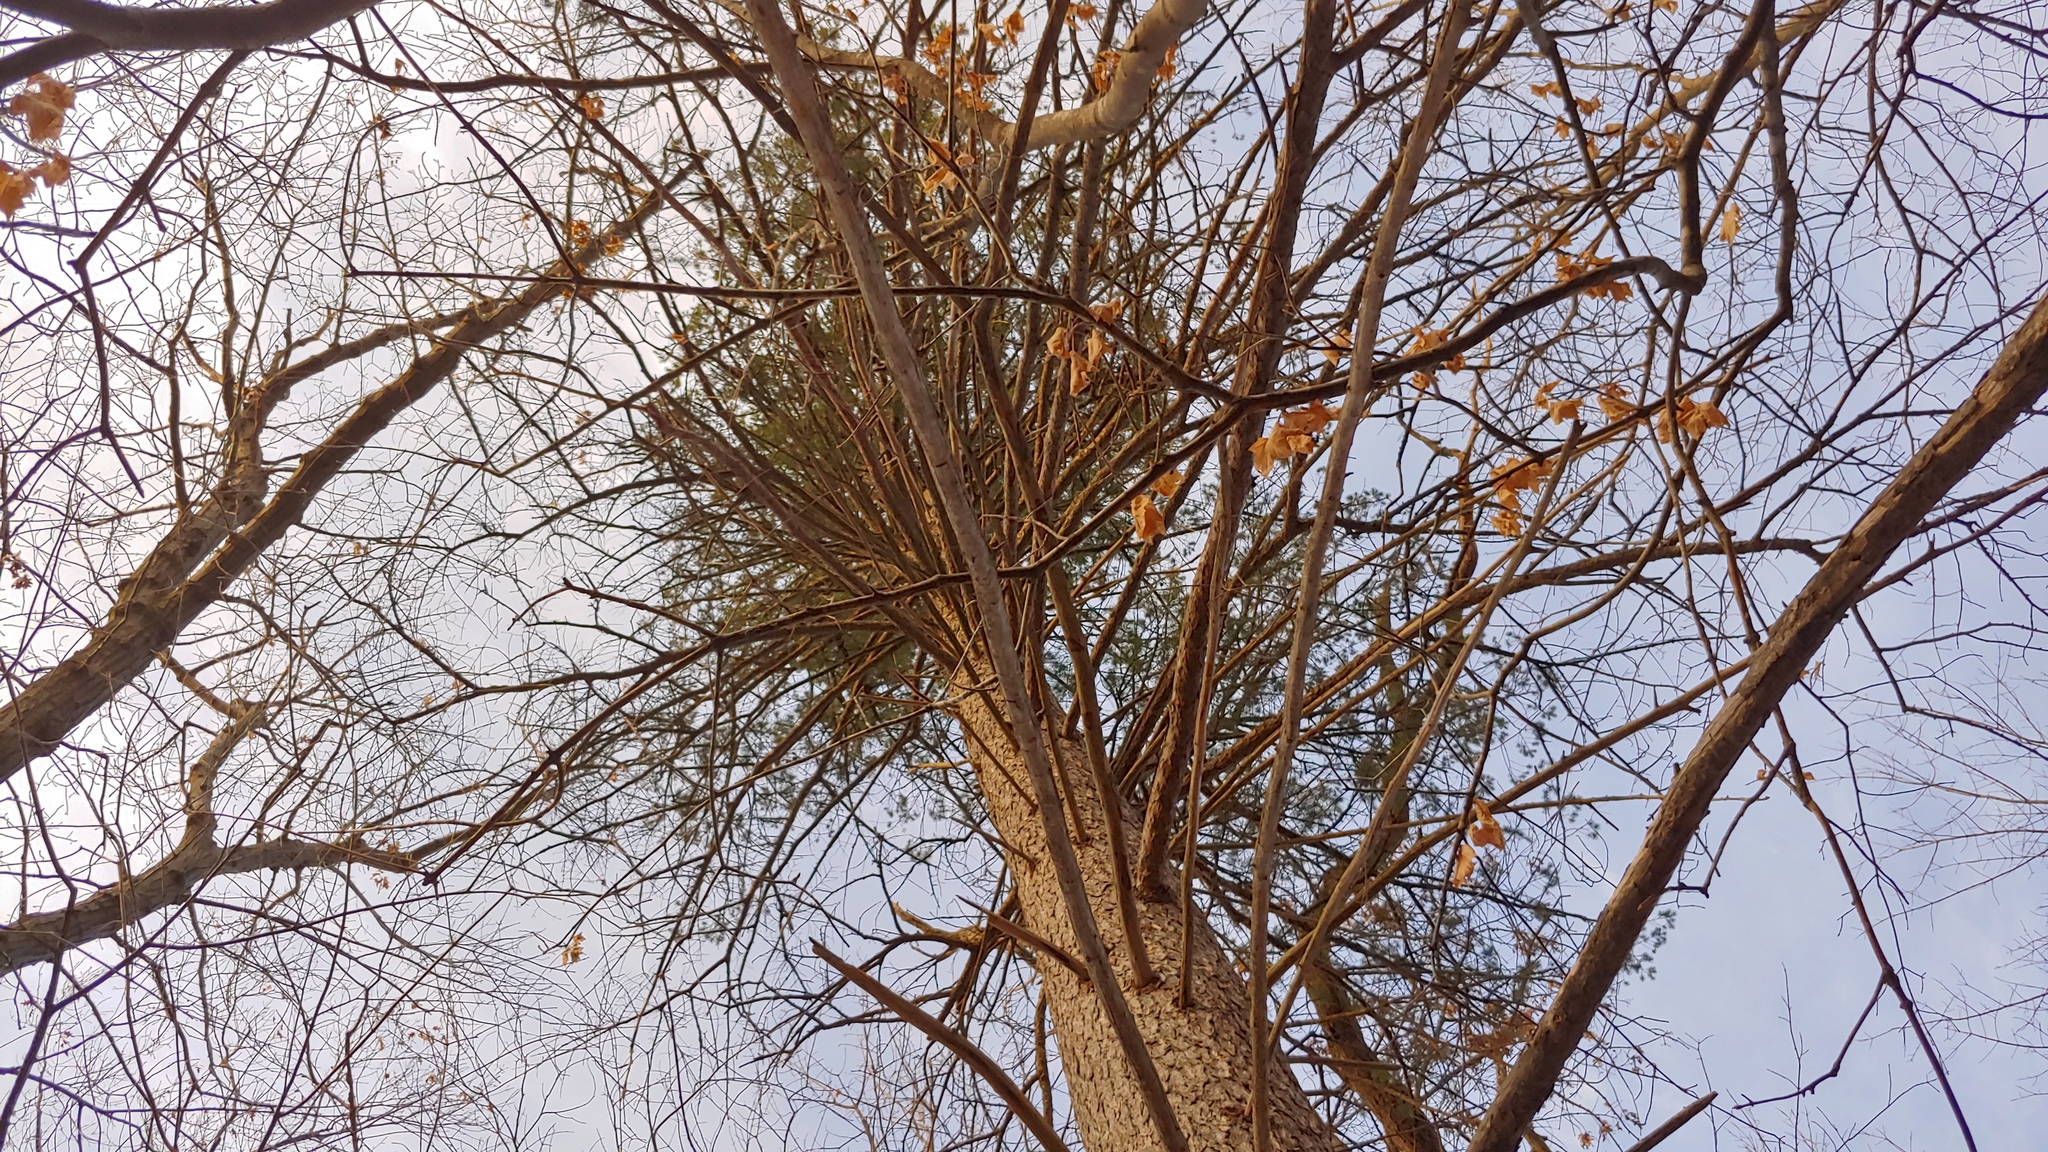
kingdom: Plantae
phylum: Tracheophyta
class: Pinopsida
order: Pinales
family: Pinaceae
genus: Pseudotsuga
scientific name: Pseudotsuga menziesii
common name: Douglas fir
